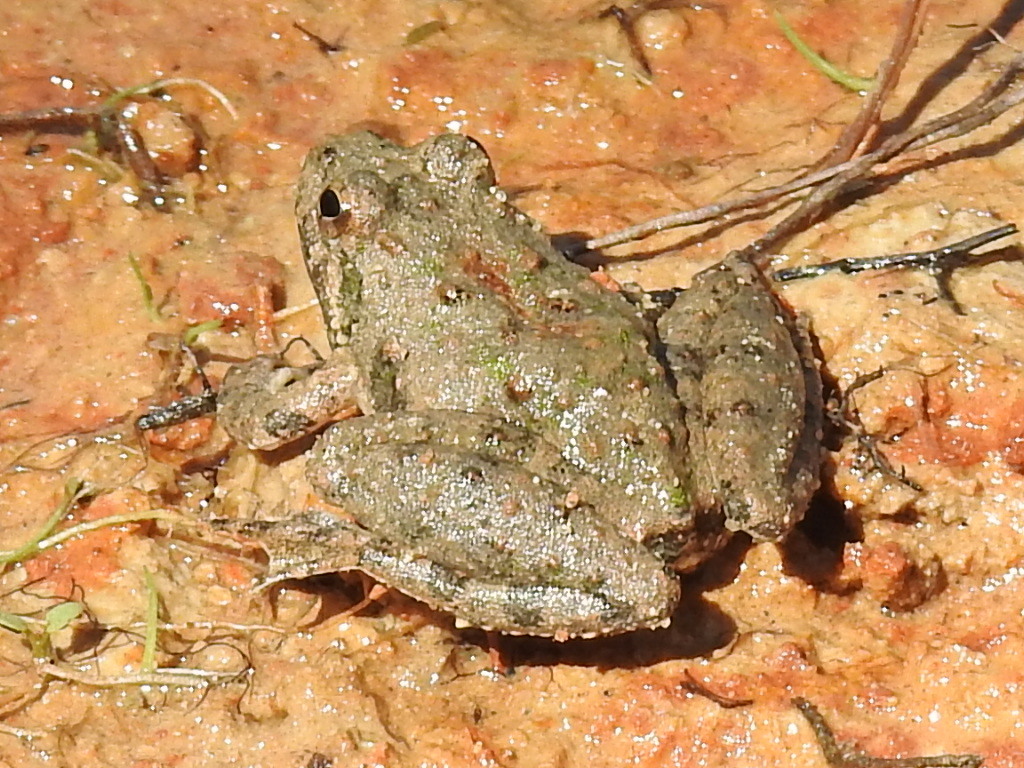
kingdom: Animalia
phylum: Chordata
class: Amphibia
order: Anura
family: Hylidae
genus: Acris
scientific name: Acris blanchardi
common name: Blanchard's cricket frog
